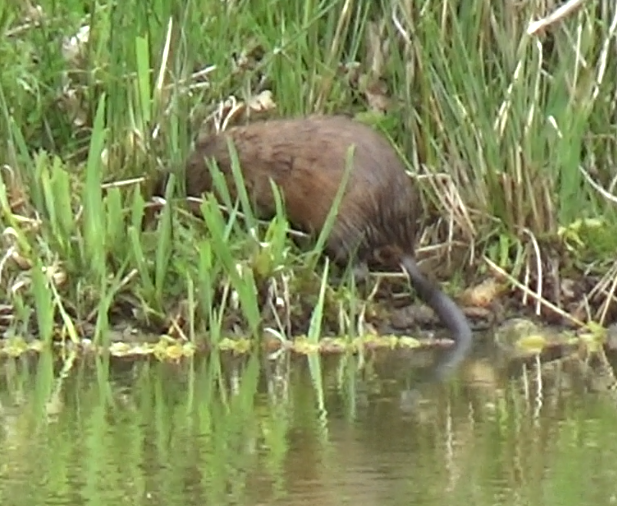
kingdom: Animalia
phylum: Chordata
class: Mammalia
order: Rodentia
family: Cricetidae
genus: Ondatra
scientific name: Ondatra zibethicus
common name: Muskrat
